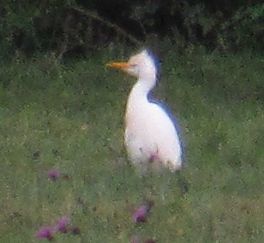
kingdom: Animalia
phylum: Chordata
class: Aves
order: Pelecaniformes
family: Ardeidae
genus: Bubulcus
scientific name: Bubulcus ibis
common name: Cattle egret
